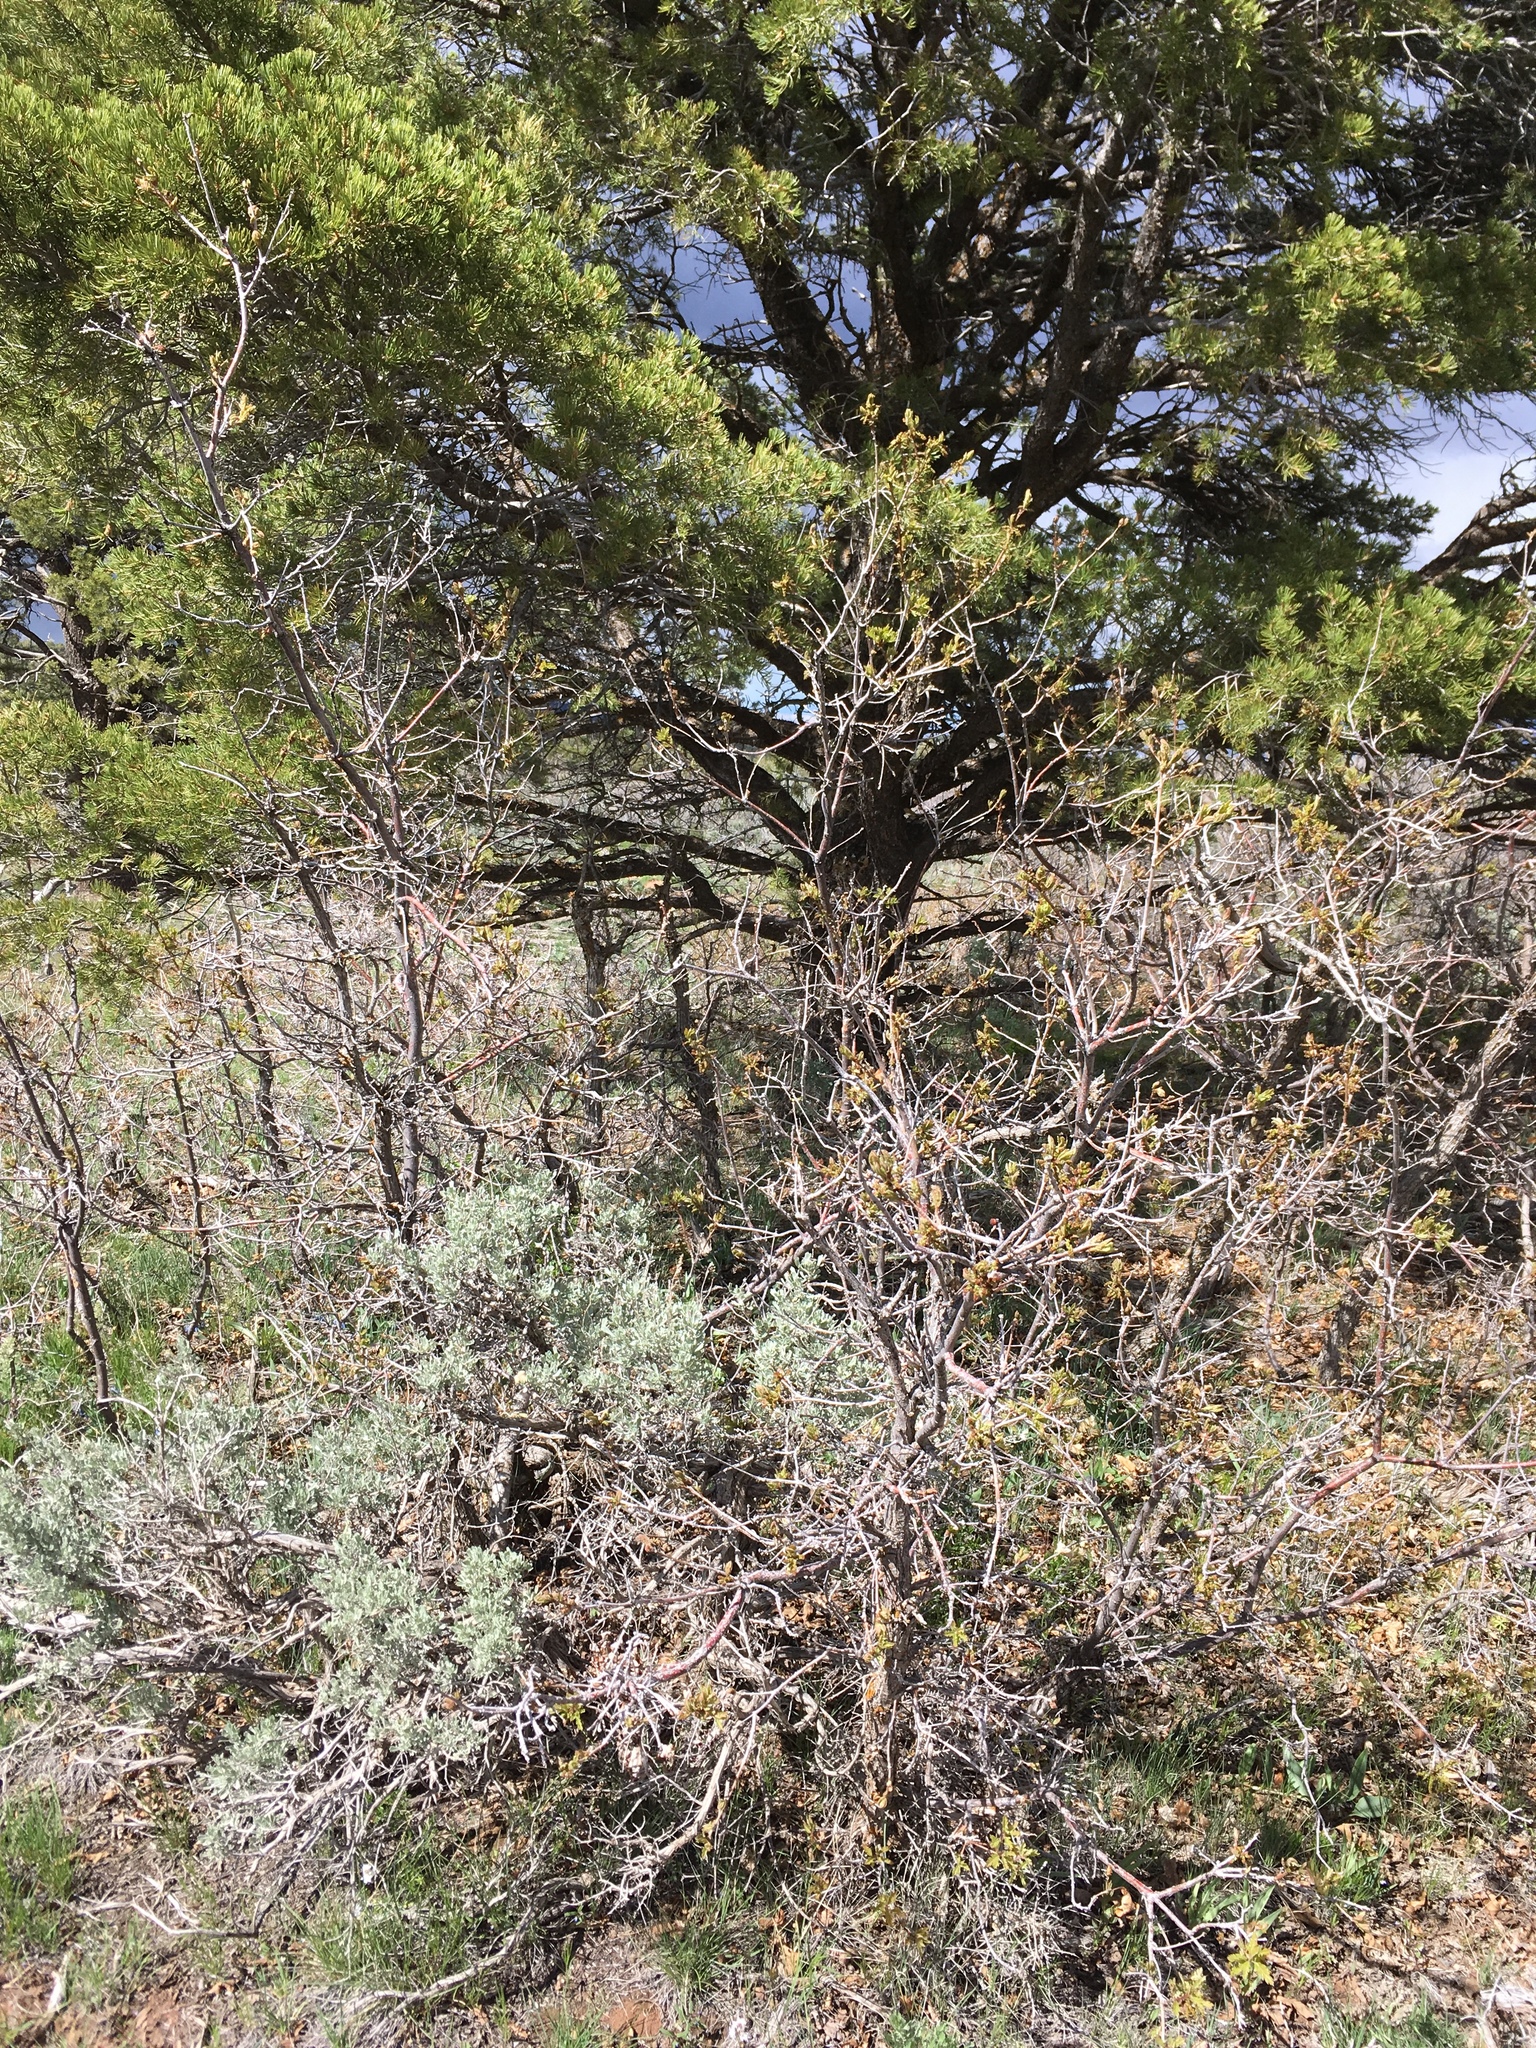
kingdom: Plantae
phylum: Tracheophyta
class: Magnoliopsida
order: Fagales
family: Fagaceae
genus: Quercus
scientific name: Quercus gambelii
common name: Gambel oak
